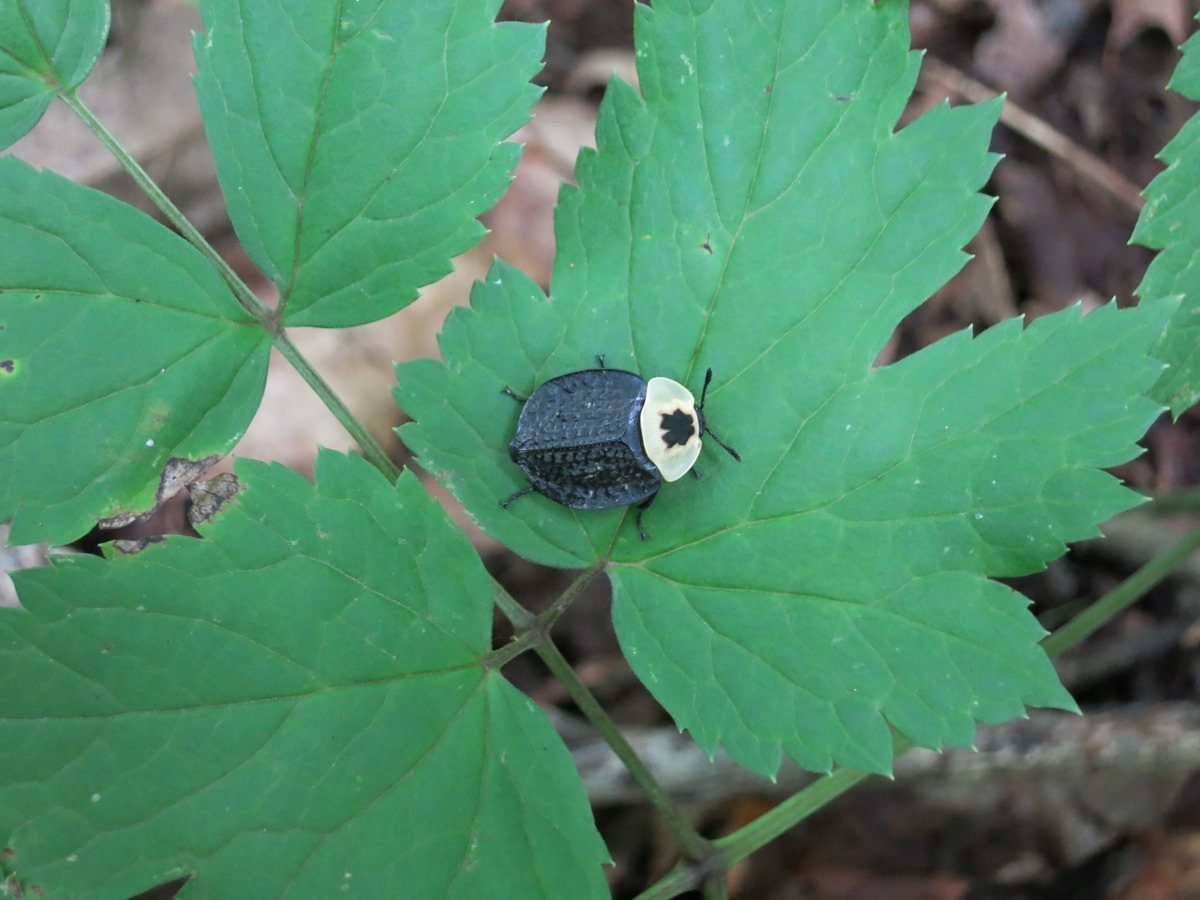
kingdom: Animalia
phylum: Arthropoda
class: Insecta
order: Coleoptera
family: Staphylinidae
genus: Necrophila
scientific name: Necrophila americana
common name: American carrion beetle
